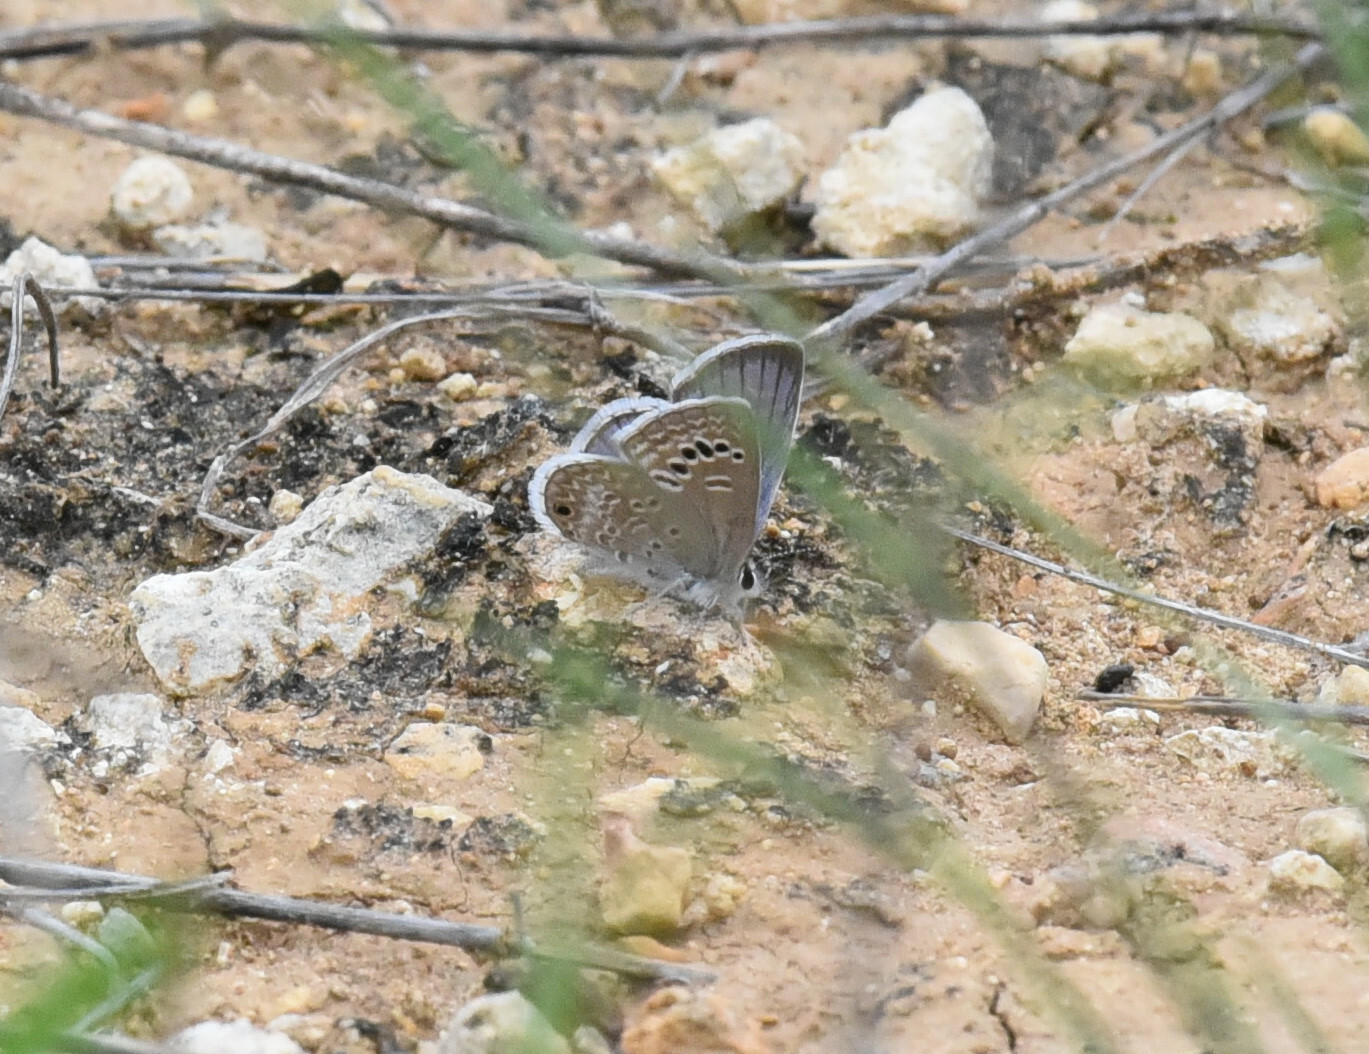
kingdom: Animalia
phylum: Arthropoda
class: Insecta
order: Lepidoptera
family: Lycaenidae
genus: Echinargus
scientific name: Echinargus isola
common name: Reakirt's blue
